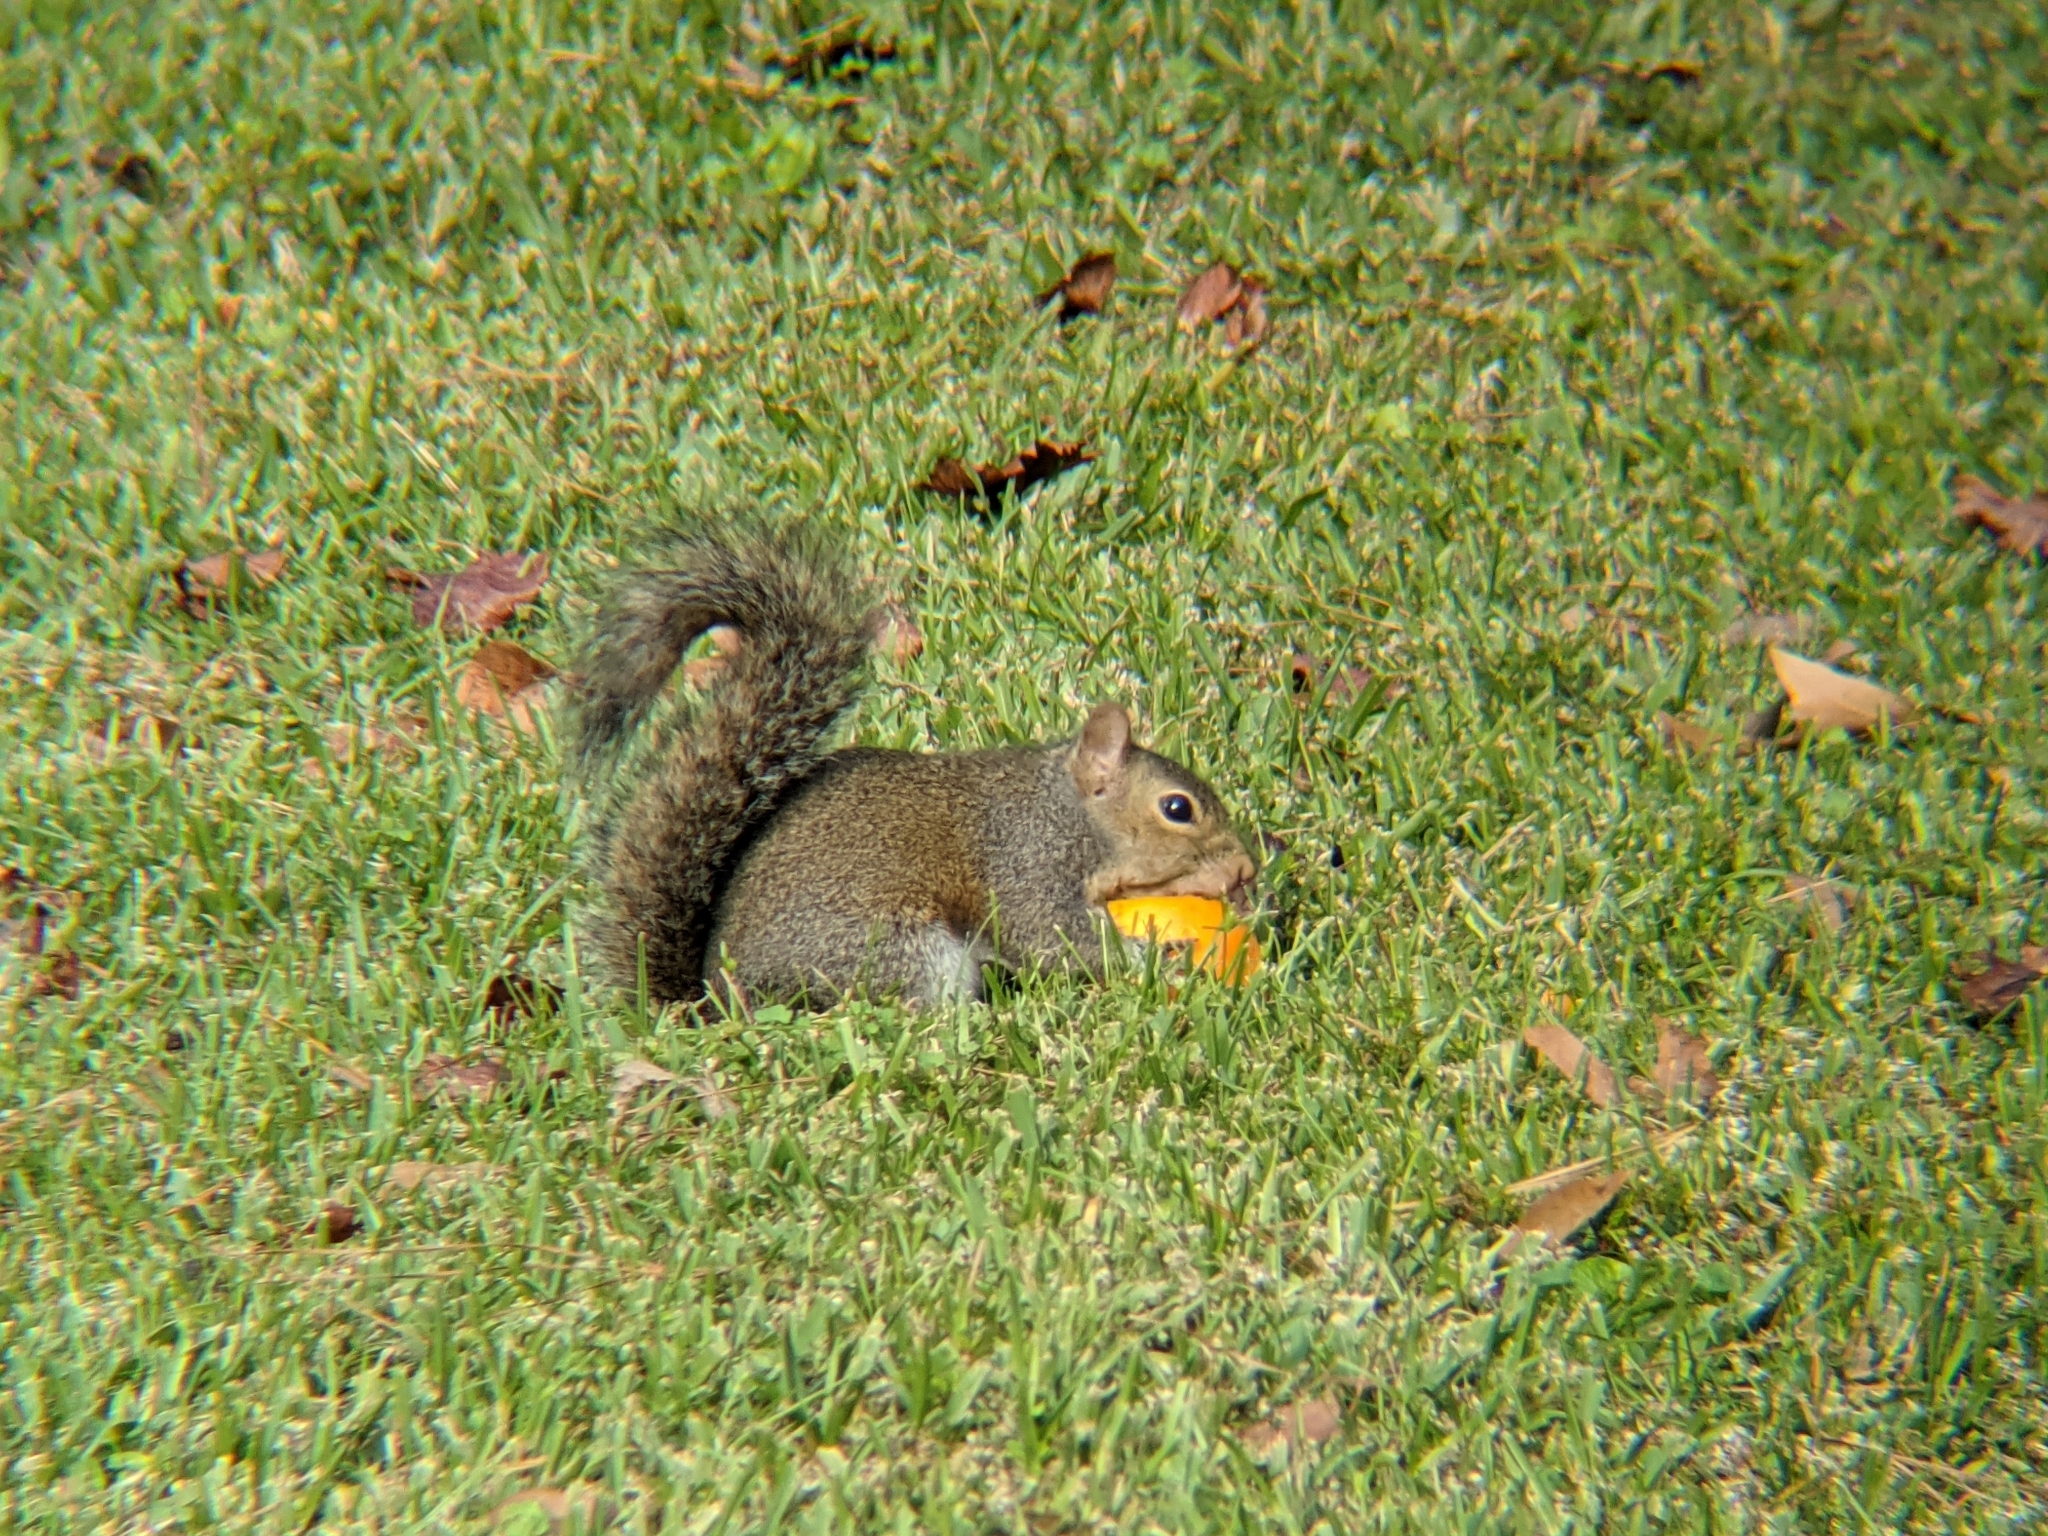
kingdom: Animalia
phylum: Chordata
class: Mammalia
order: Rodentia
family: Sciuridae
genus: Sciurus
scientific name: Sciurus carolinensis
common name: Eastern gray squirrel
